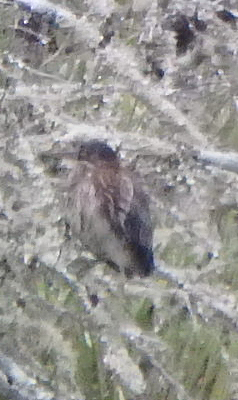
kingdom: Animalia
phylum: Chordata
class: Aves
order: Pelecaniformes
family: Ardeidae
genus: Butorides
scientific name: Butorides virescens
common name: Green heron
